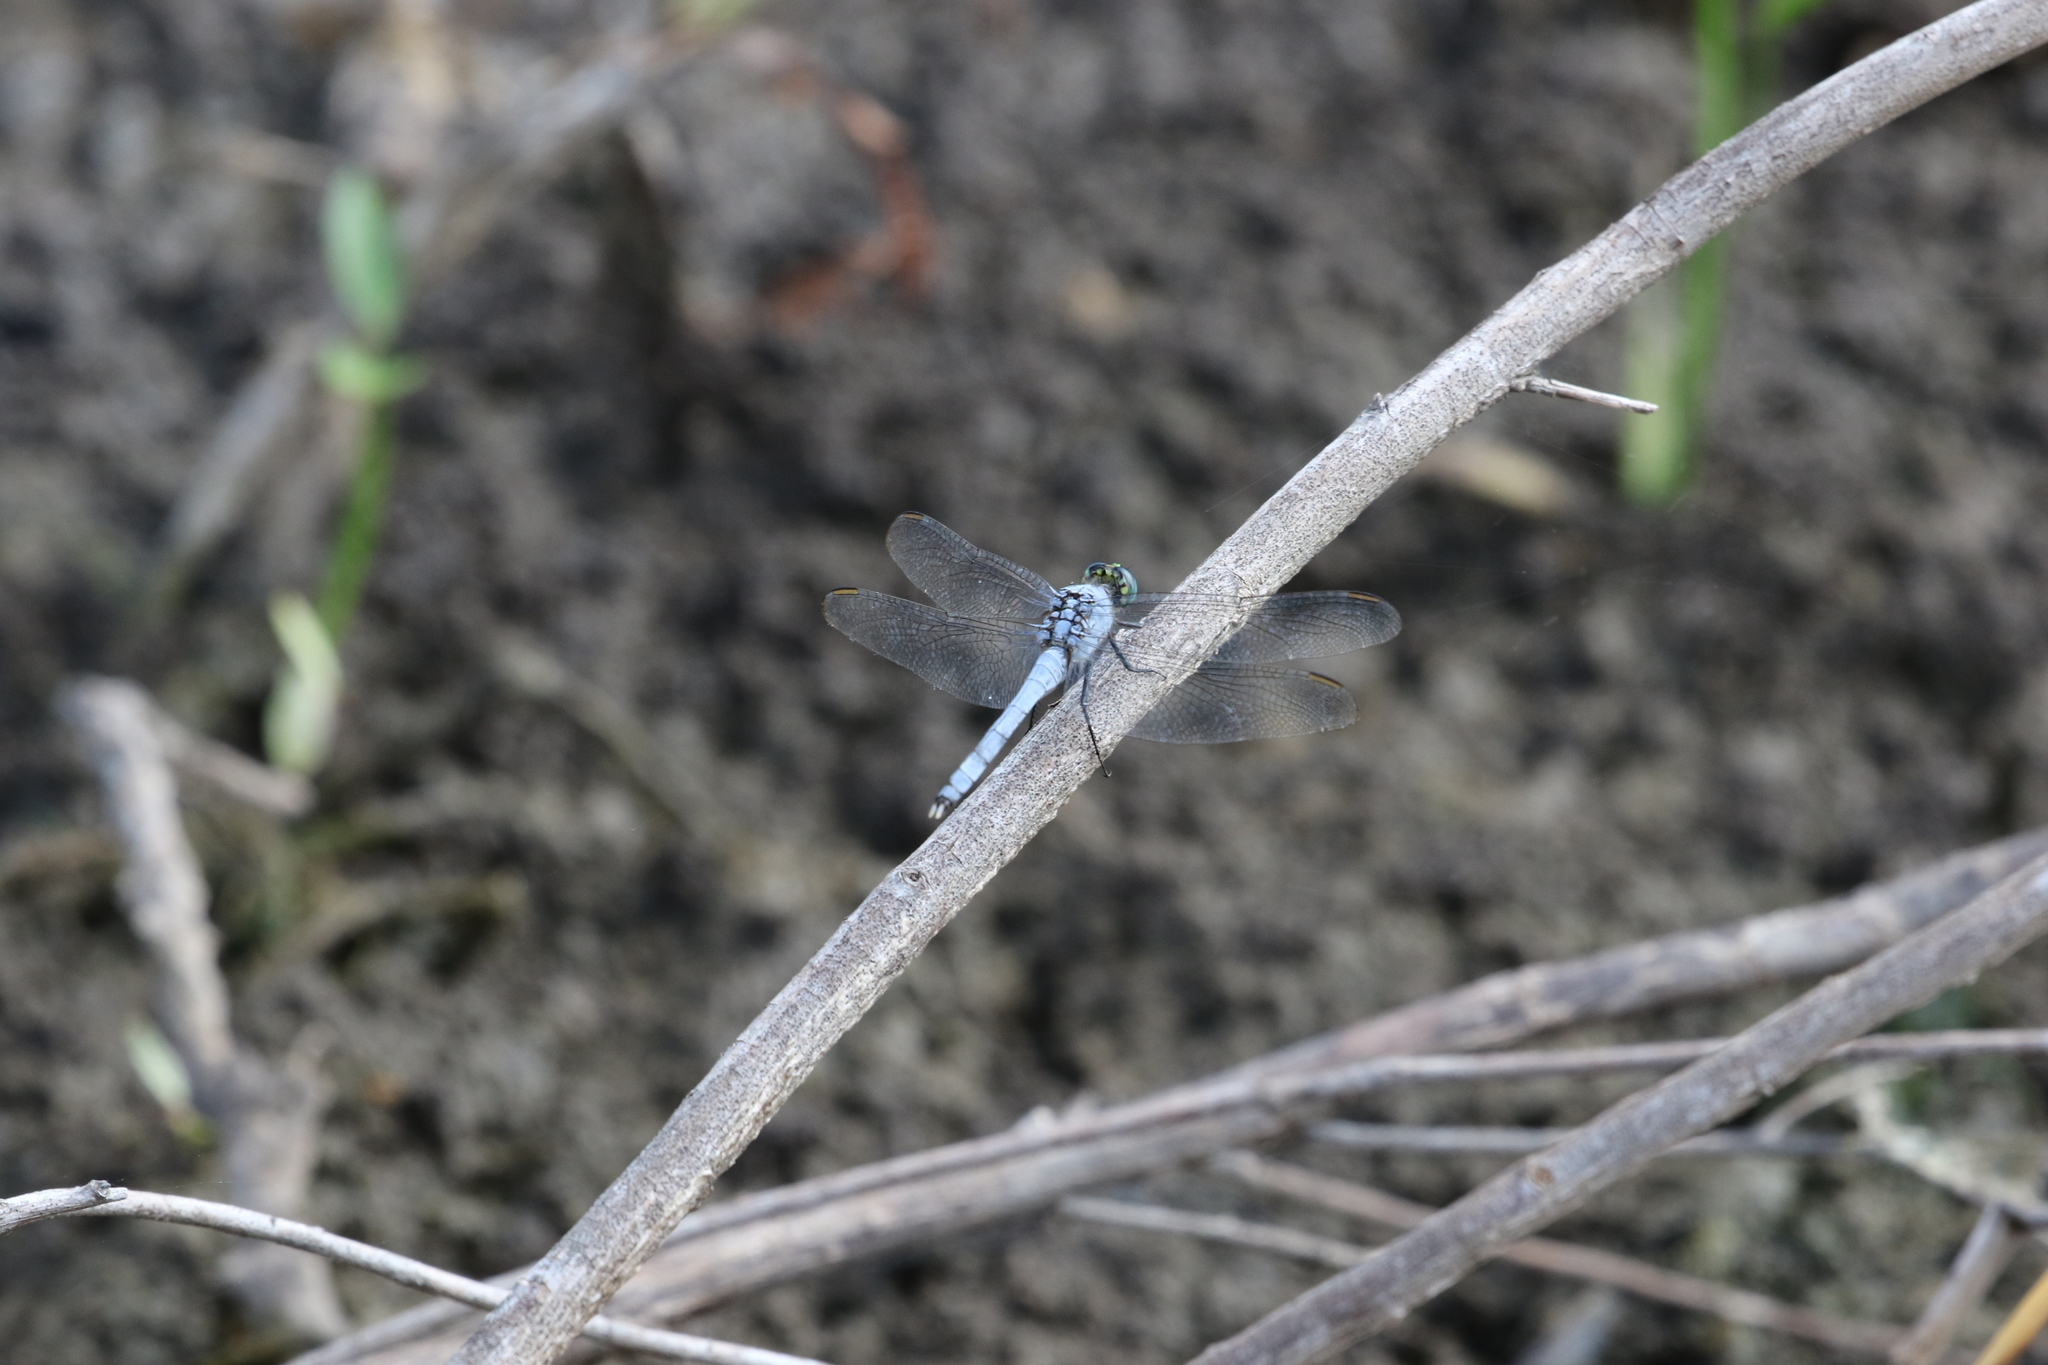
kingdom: Animalia
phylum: Arthropoda
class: Insecta
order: Odonata
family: Libellulidae
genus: Erythemis
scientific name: Erythemis simplicicollis
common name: Eastern pondhawk
